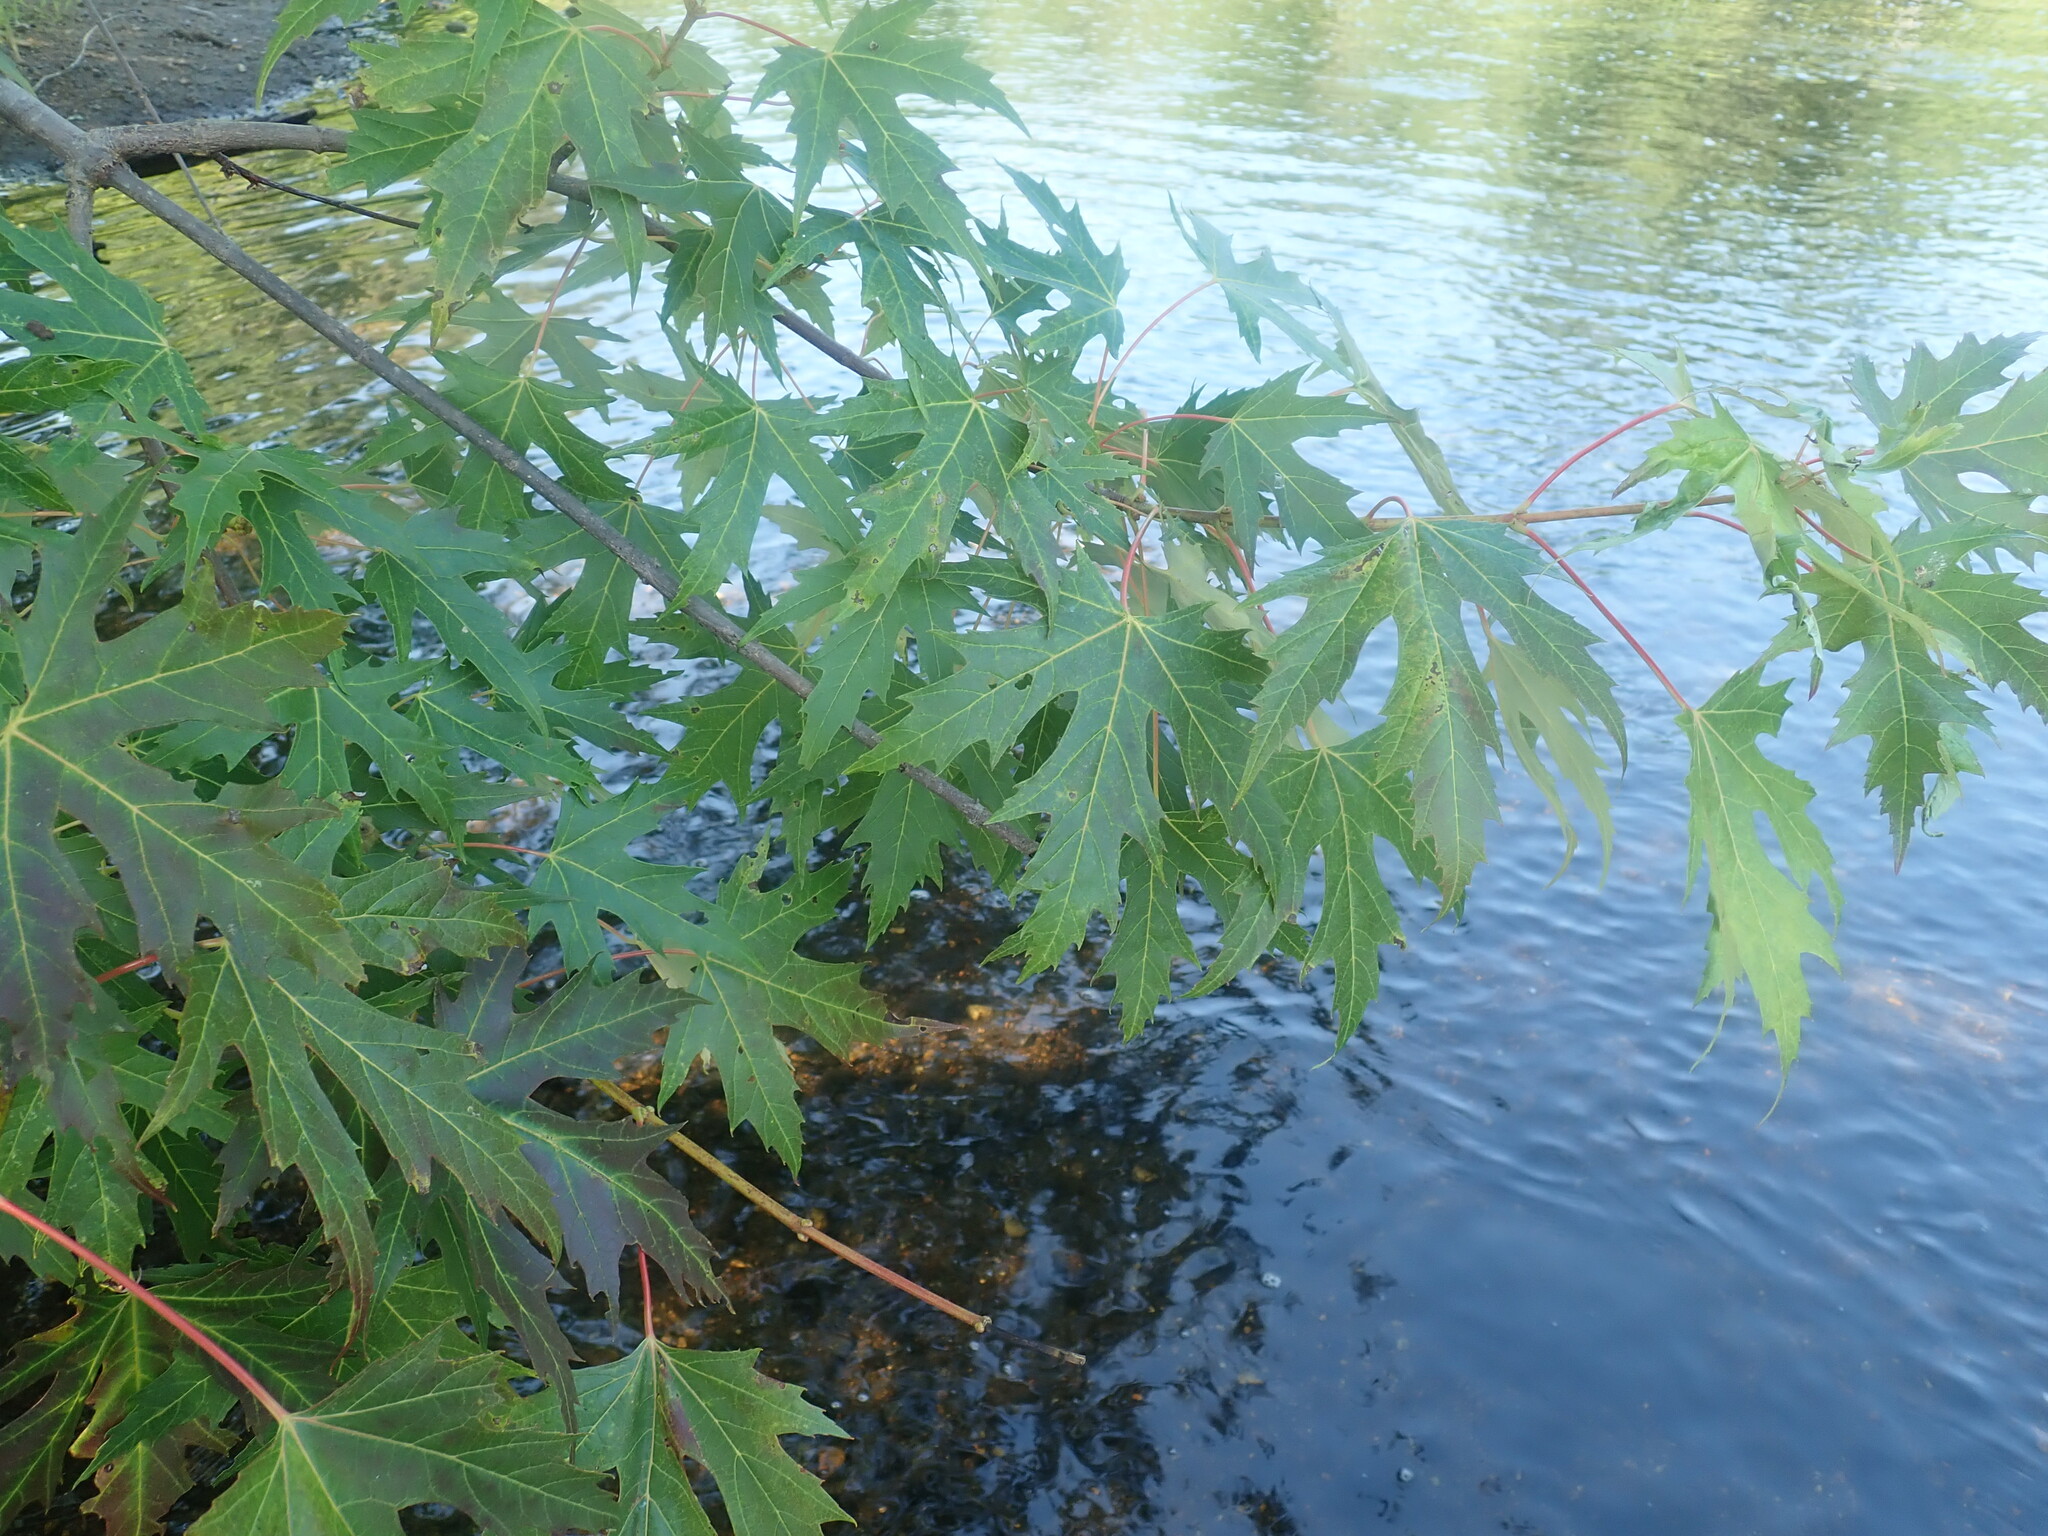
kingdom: Plantae
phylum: Tracheophyta
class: Magnoliopsida
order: Sapindales
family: Sapindaceae
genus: Acer
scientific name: Acer saccharinum
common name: Silver maple
